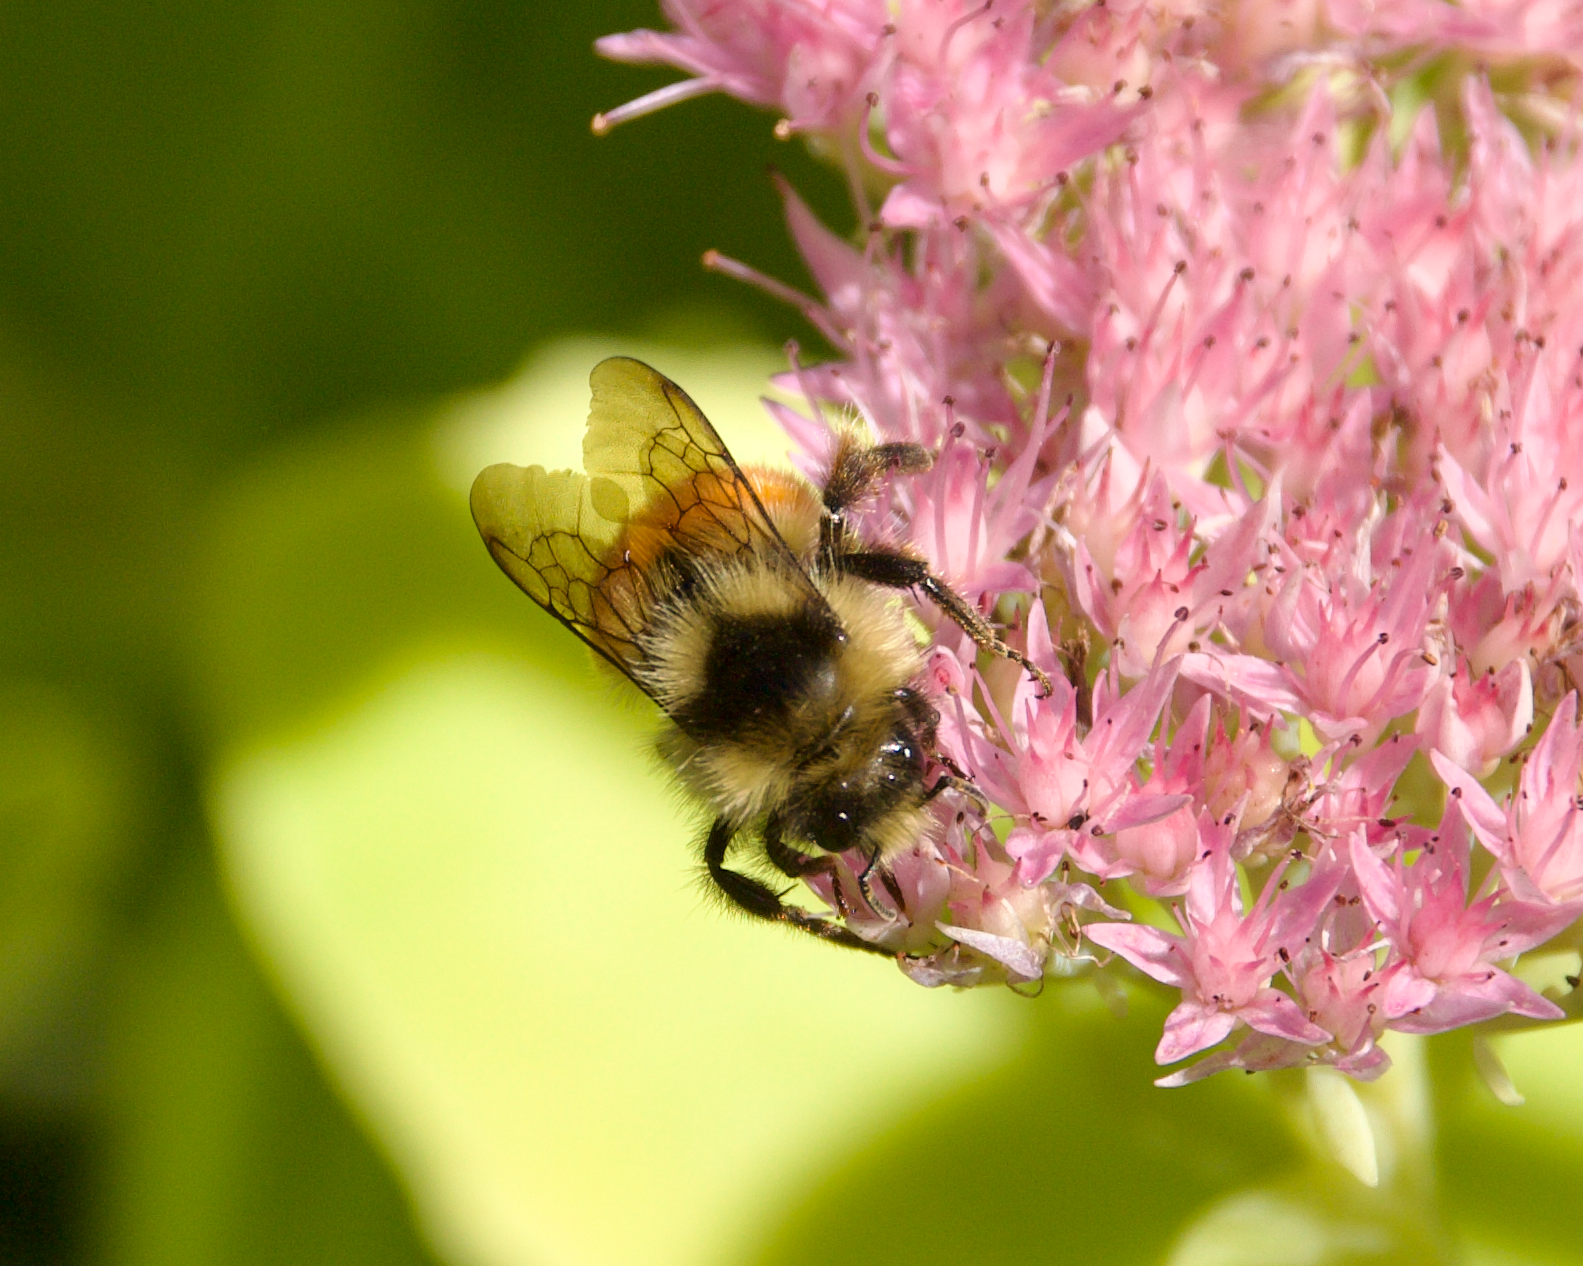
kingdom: Animalia
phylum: Arthropoda
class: Insecta
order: Hymenoptera
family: Apidae
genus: Bombus
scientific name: Bombus ternarius
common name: Tri-colored bumble bee
